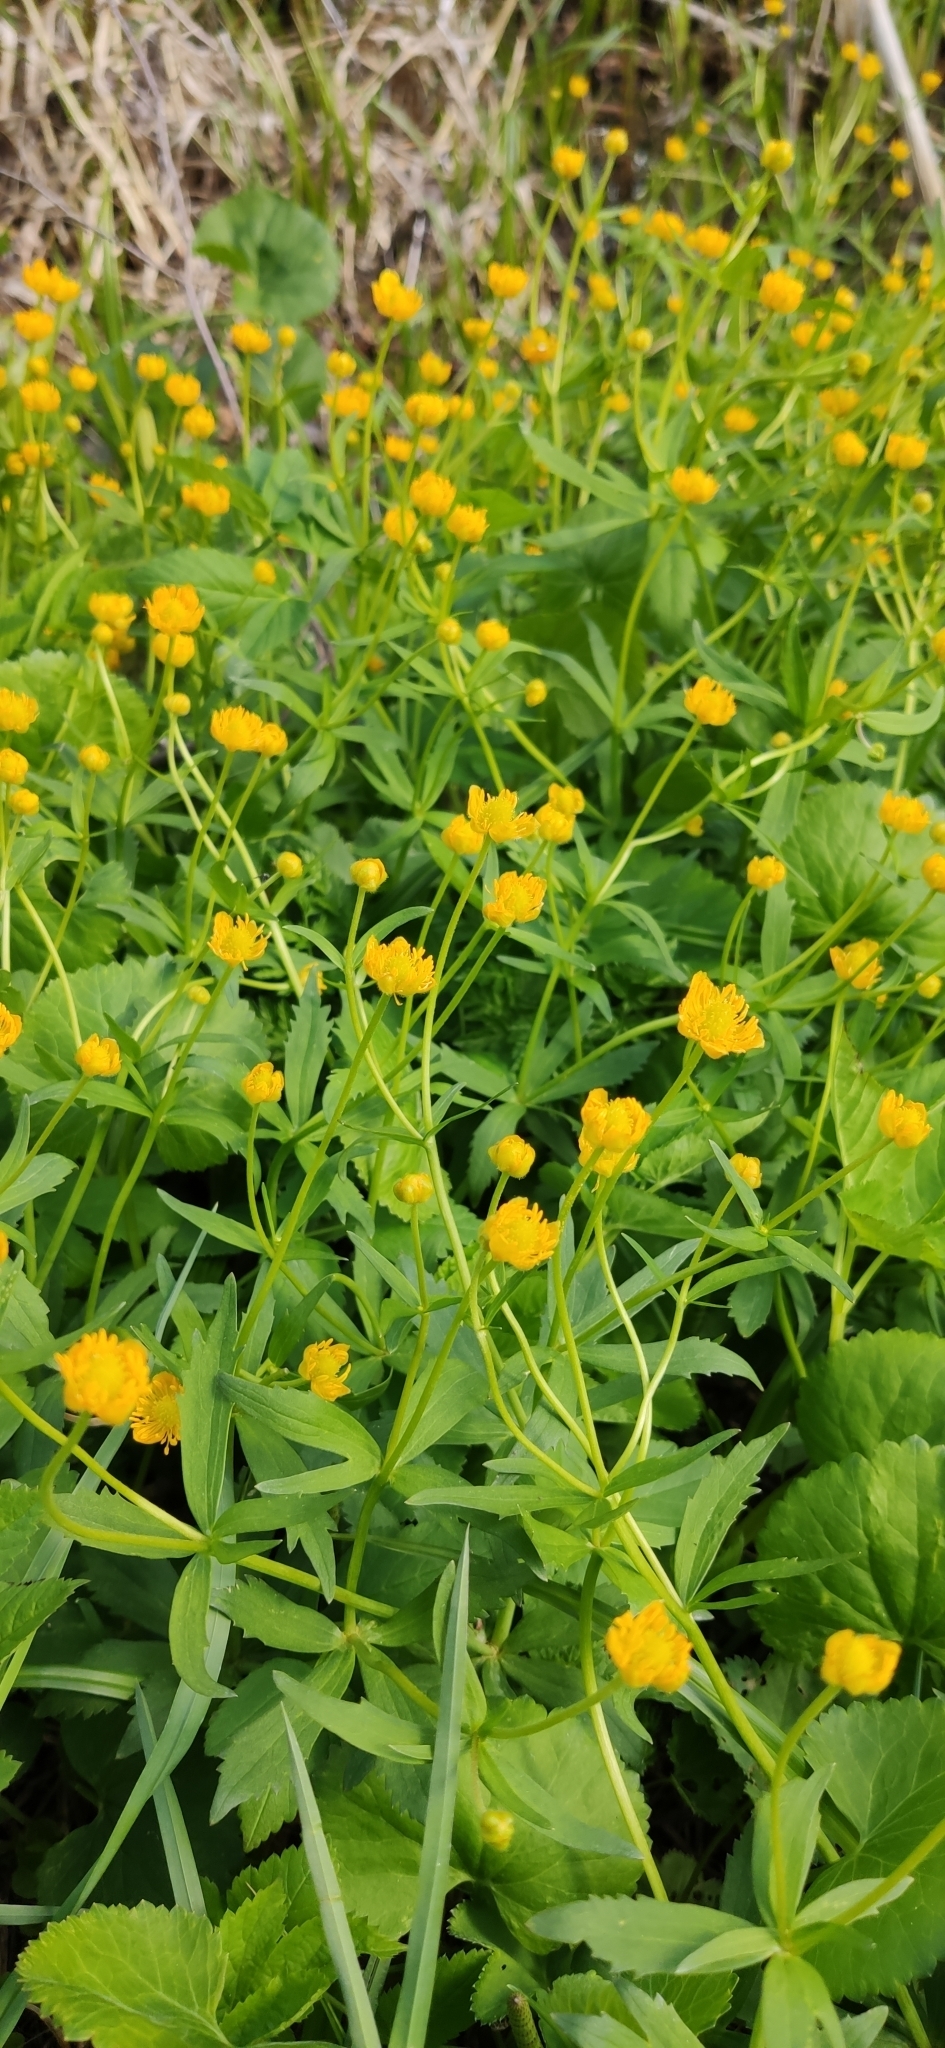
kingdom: Plantae
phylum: Tracheophyta
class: Magnoliopsida
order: Ranunculales
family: Ranunculaceae
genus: Ranunculus
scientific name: Ranunculus cassubicus
